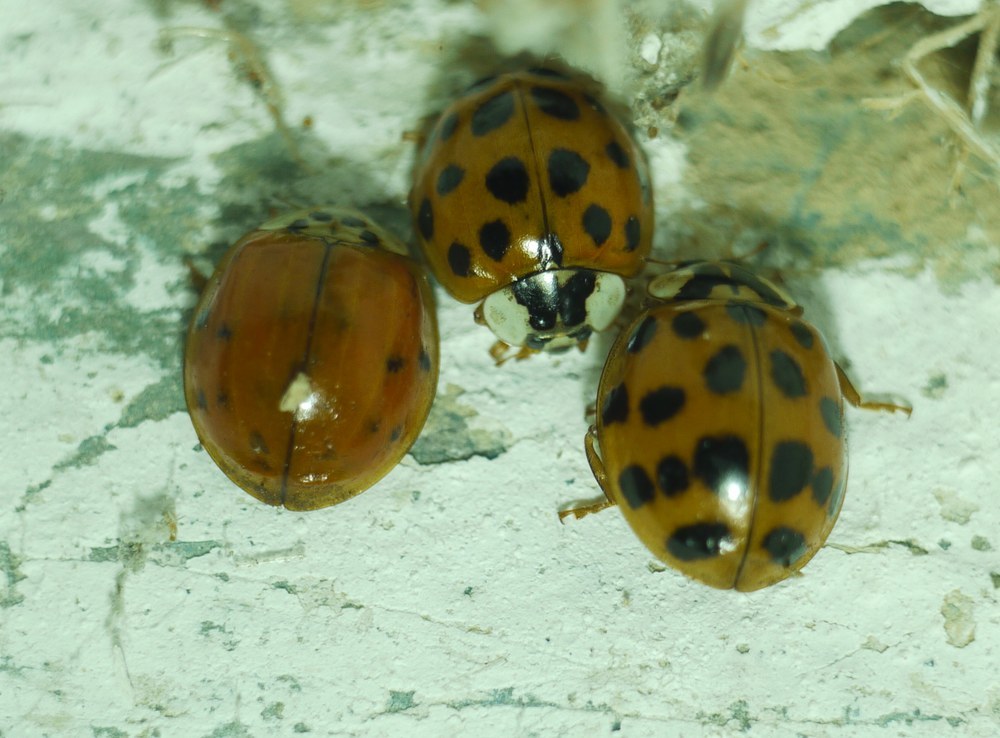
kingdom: Animalia
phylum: Arthropoda
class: Insecta
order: Coleoptera
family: Coccinellidae
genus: Harmonia
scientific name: Harmonia axyridis
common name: Harlequin ladybird
